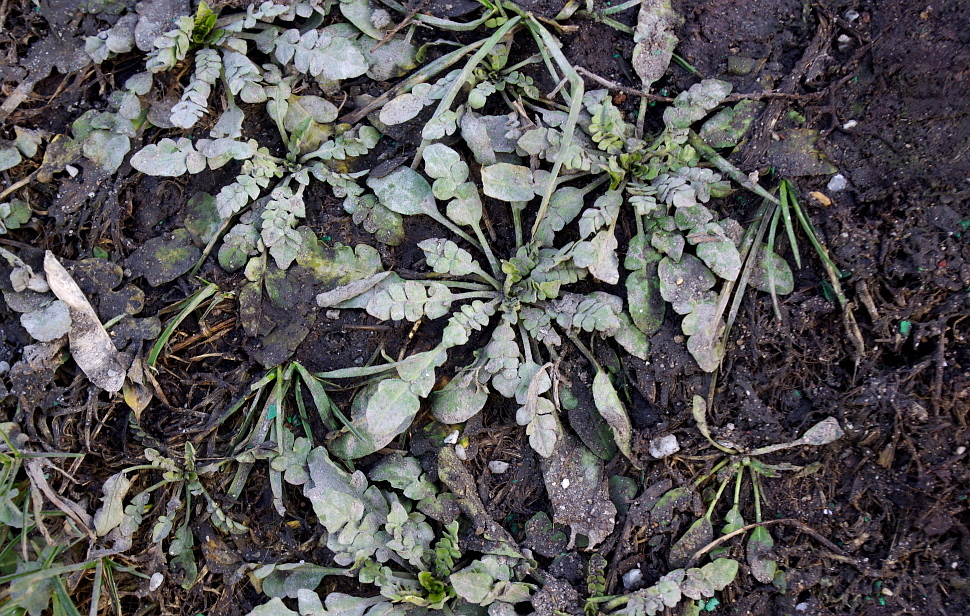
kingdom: Plantae
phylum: Tracheophyta
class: Magnoliopsida
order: Brassicales
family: Brassicaceae
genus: Capsella
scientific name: Capsella bursa-pastoris
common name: Shepherd's purse
